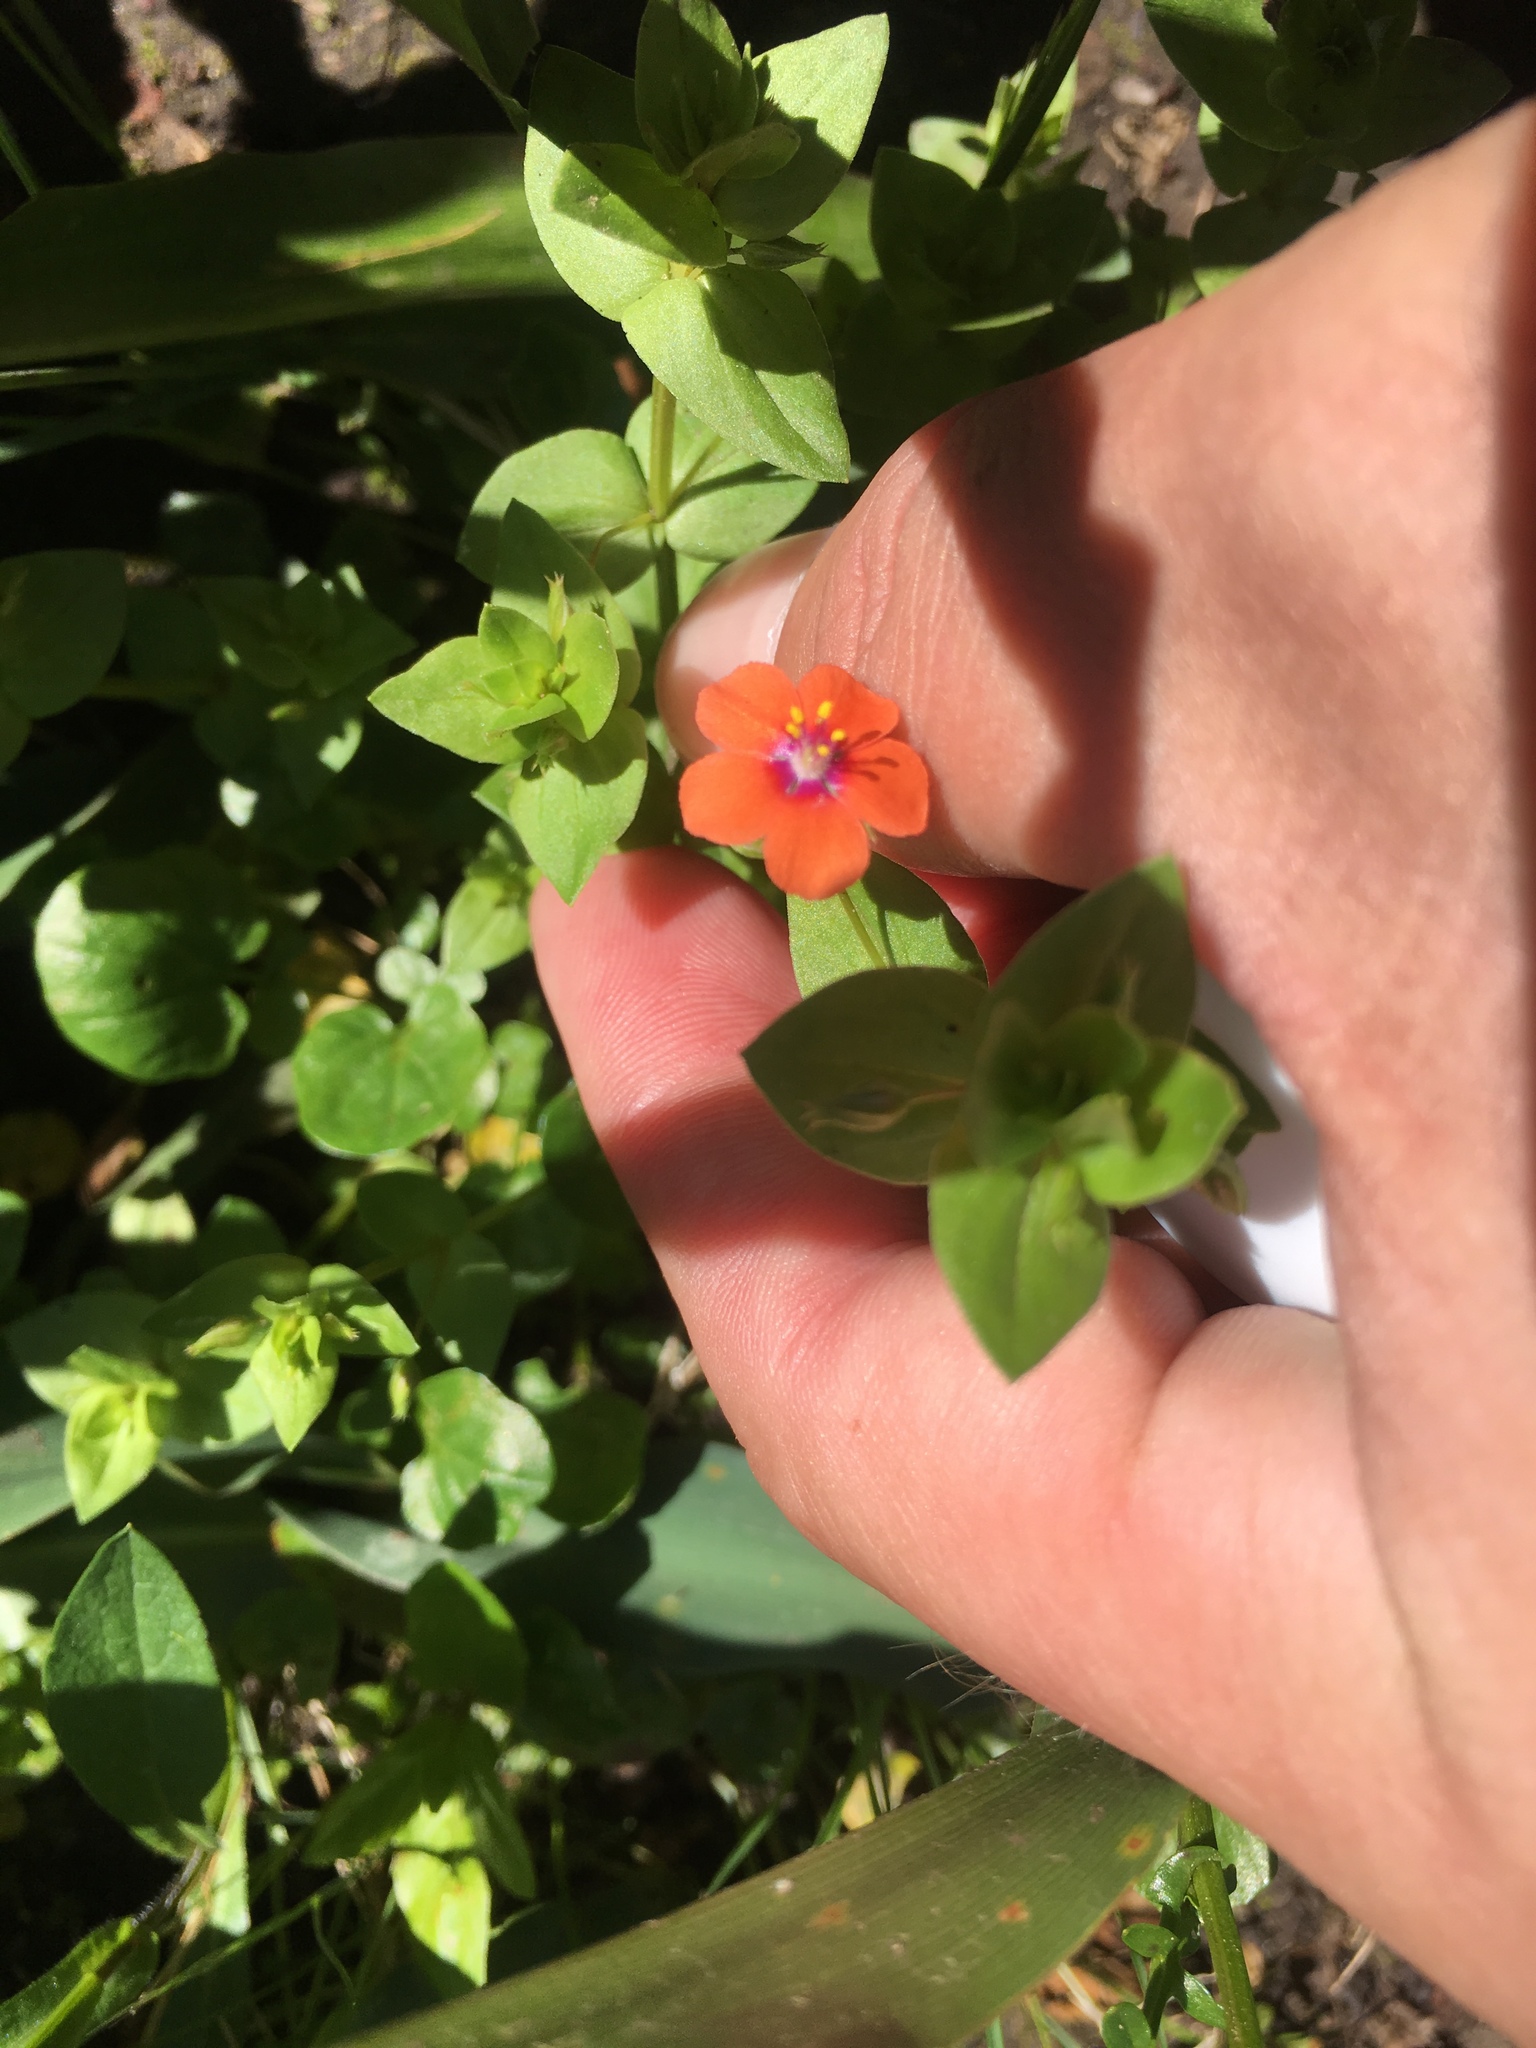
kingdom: Plantae
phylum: Tracheophyta
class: Magnoliopsida
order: Ericales
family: Primulaceae
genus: Lysimachia
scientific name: Lysimachia arvensis
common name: Scarlet pimpernel
